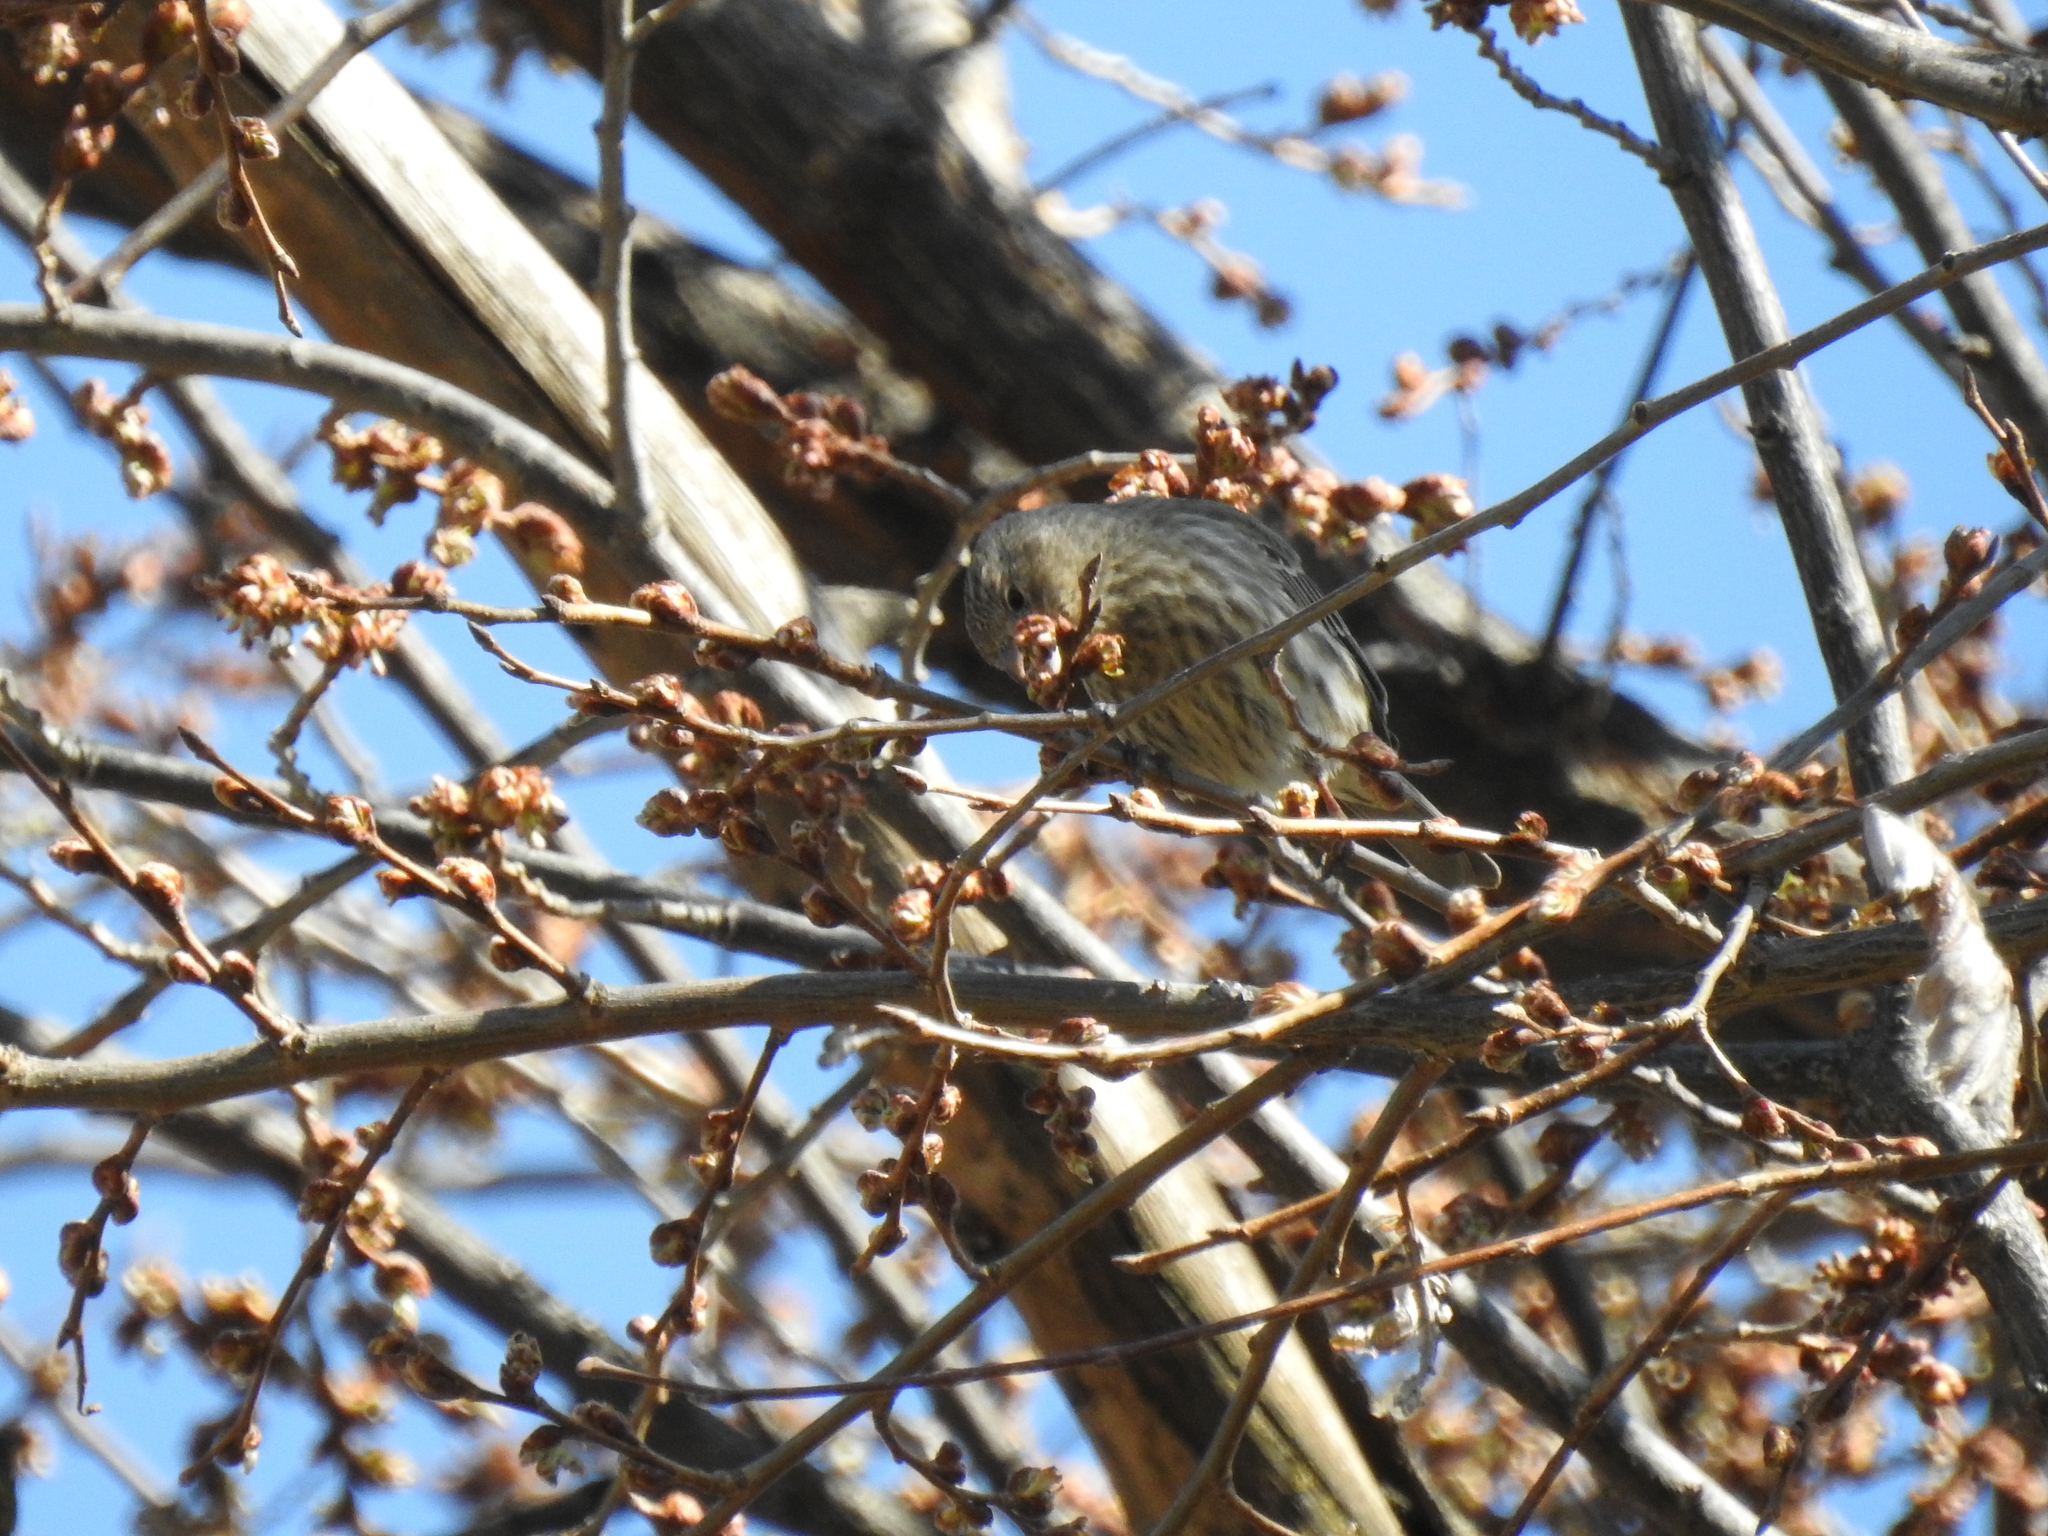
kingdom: Animalia
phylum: Chordata
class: Aves
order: Passeriformes
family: Fringillidae
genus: Haemorhous
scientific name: Haemorhous mexicanus
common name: House finch
